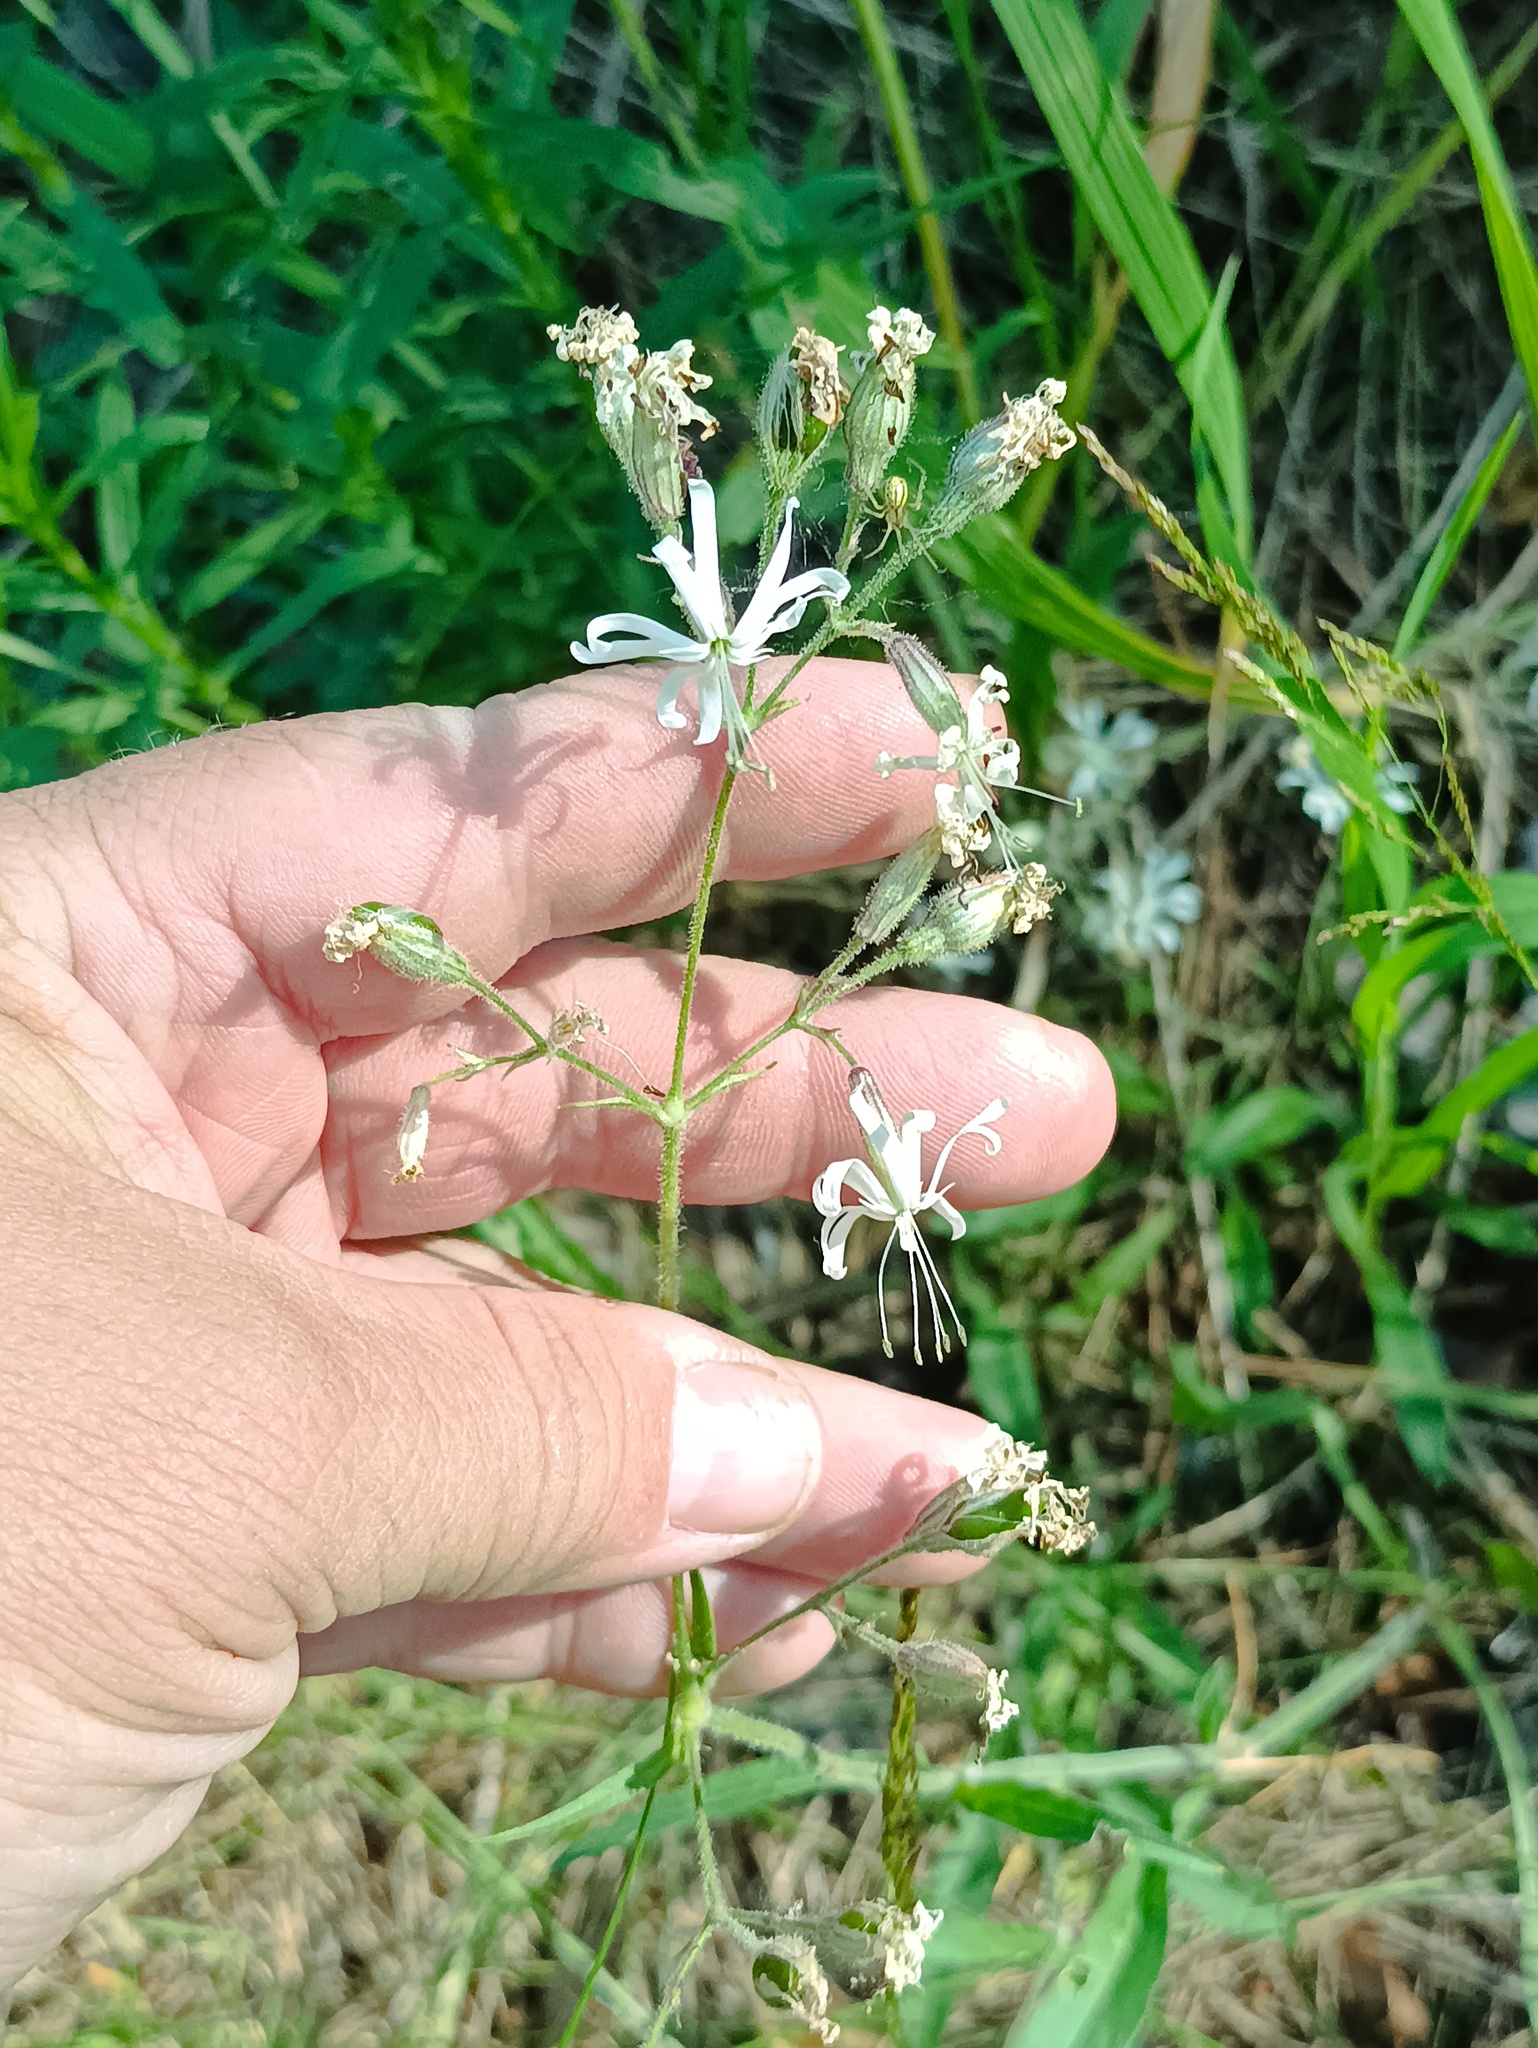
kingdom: Plantae
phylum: Tracheophyta
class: Magnoliopsida
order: Caryophyllales
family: Caryophyllaceae
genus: Silene
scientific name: Silene nutans
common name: Nottingham catchfly
